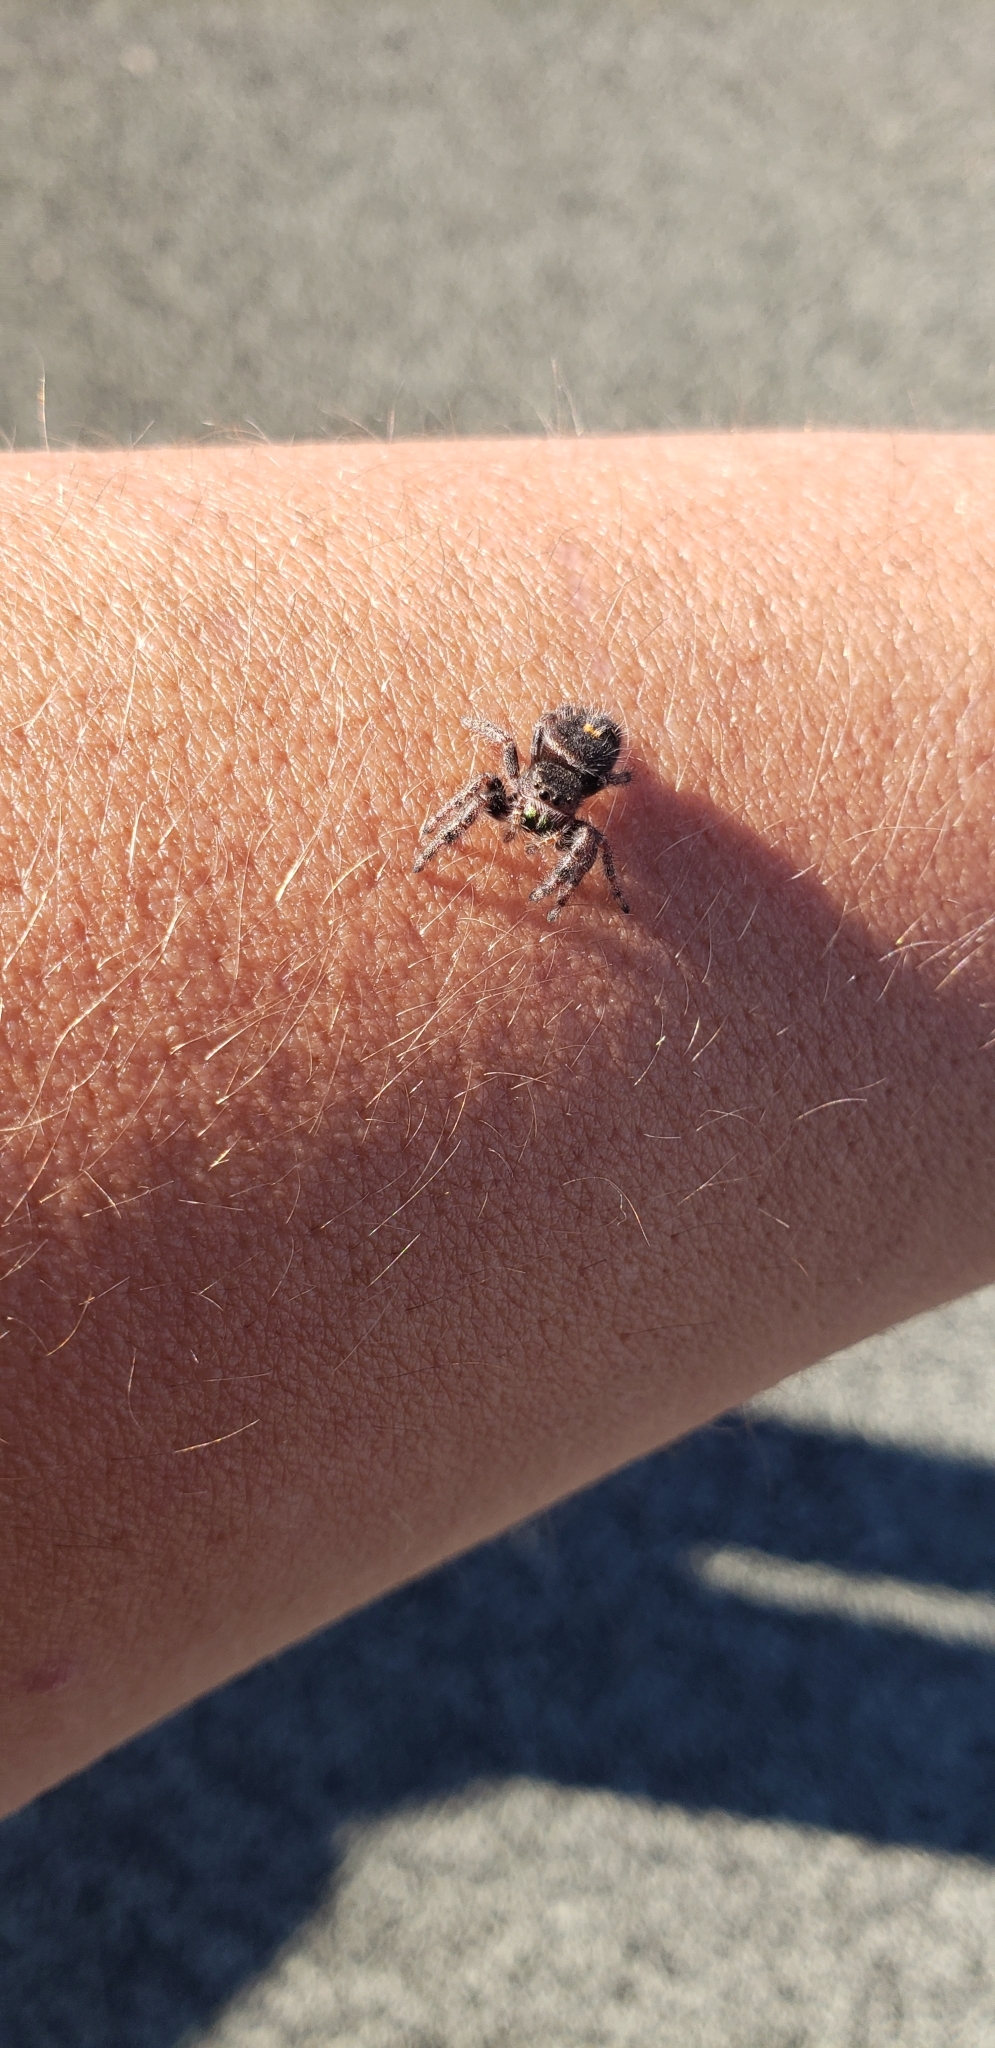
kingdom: Animalia
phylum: Arthropoda
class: Arachnida
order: Araneae
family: Salticidae
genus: Phidippus
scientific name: Phidippus audax
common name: Bold jumper
